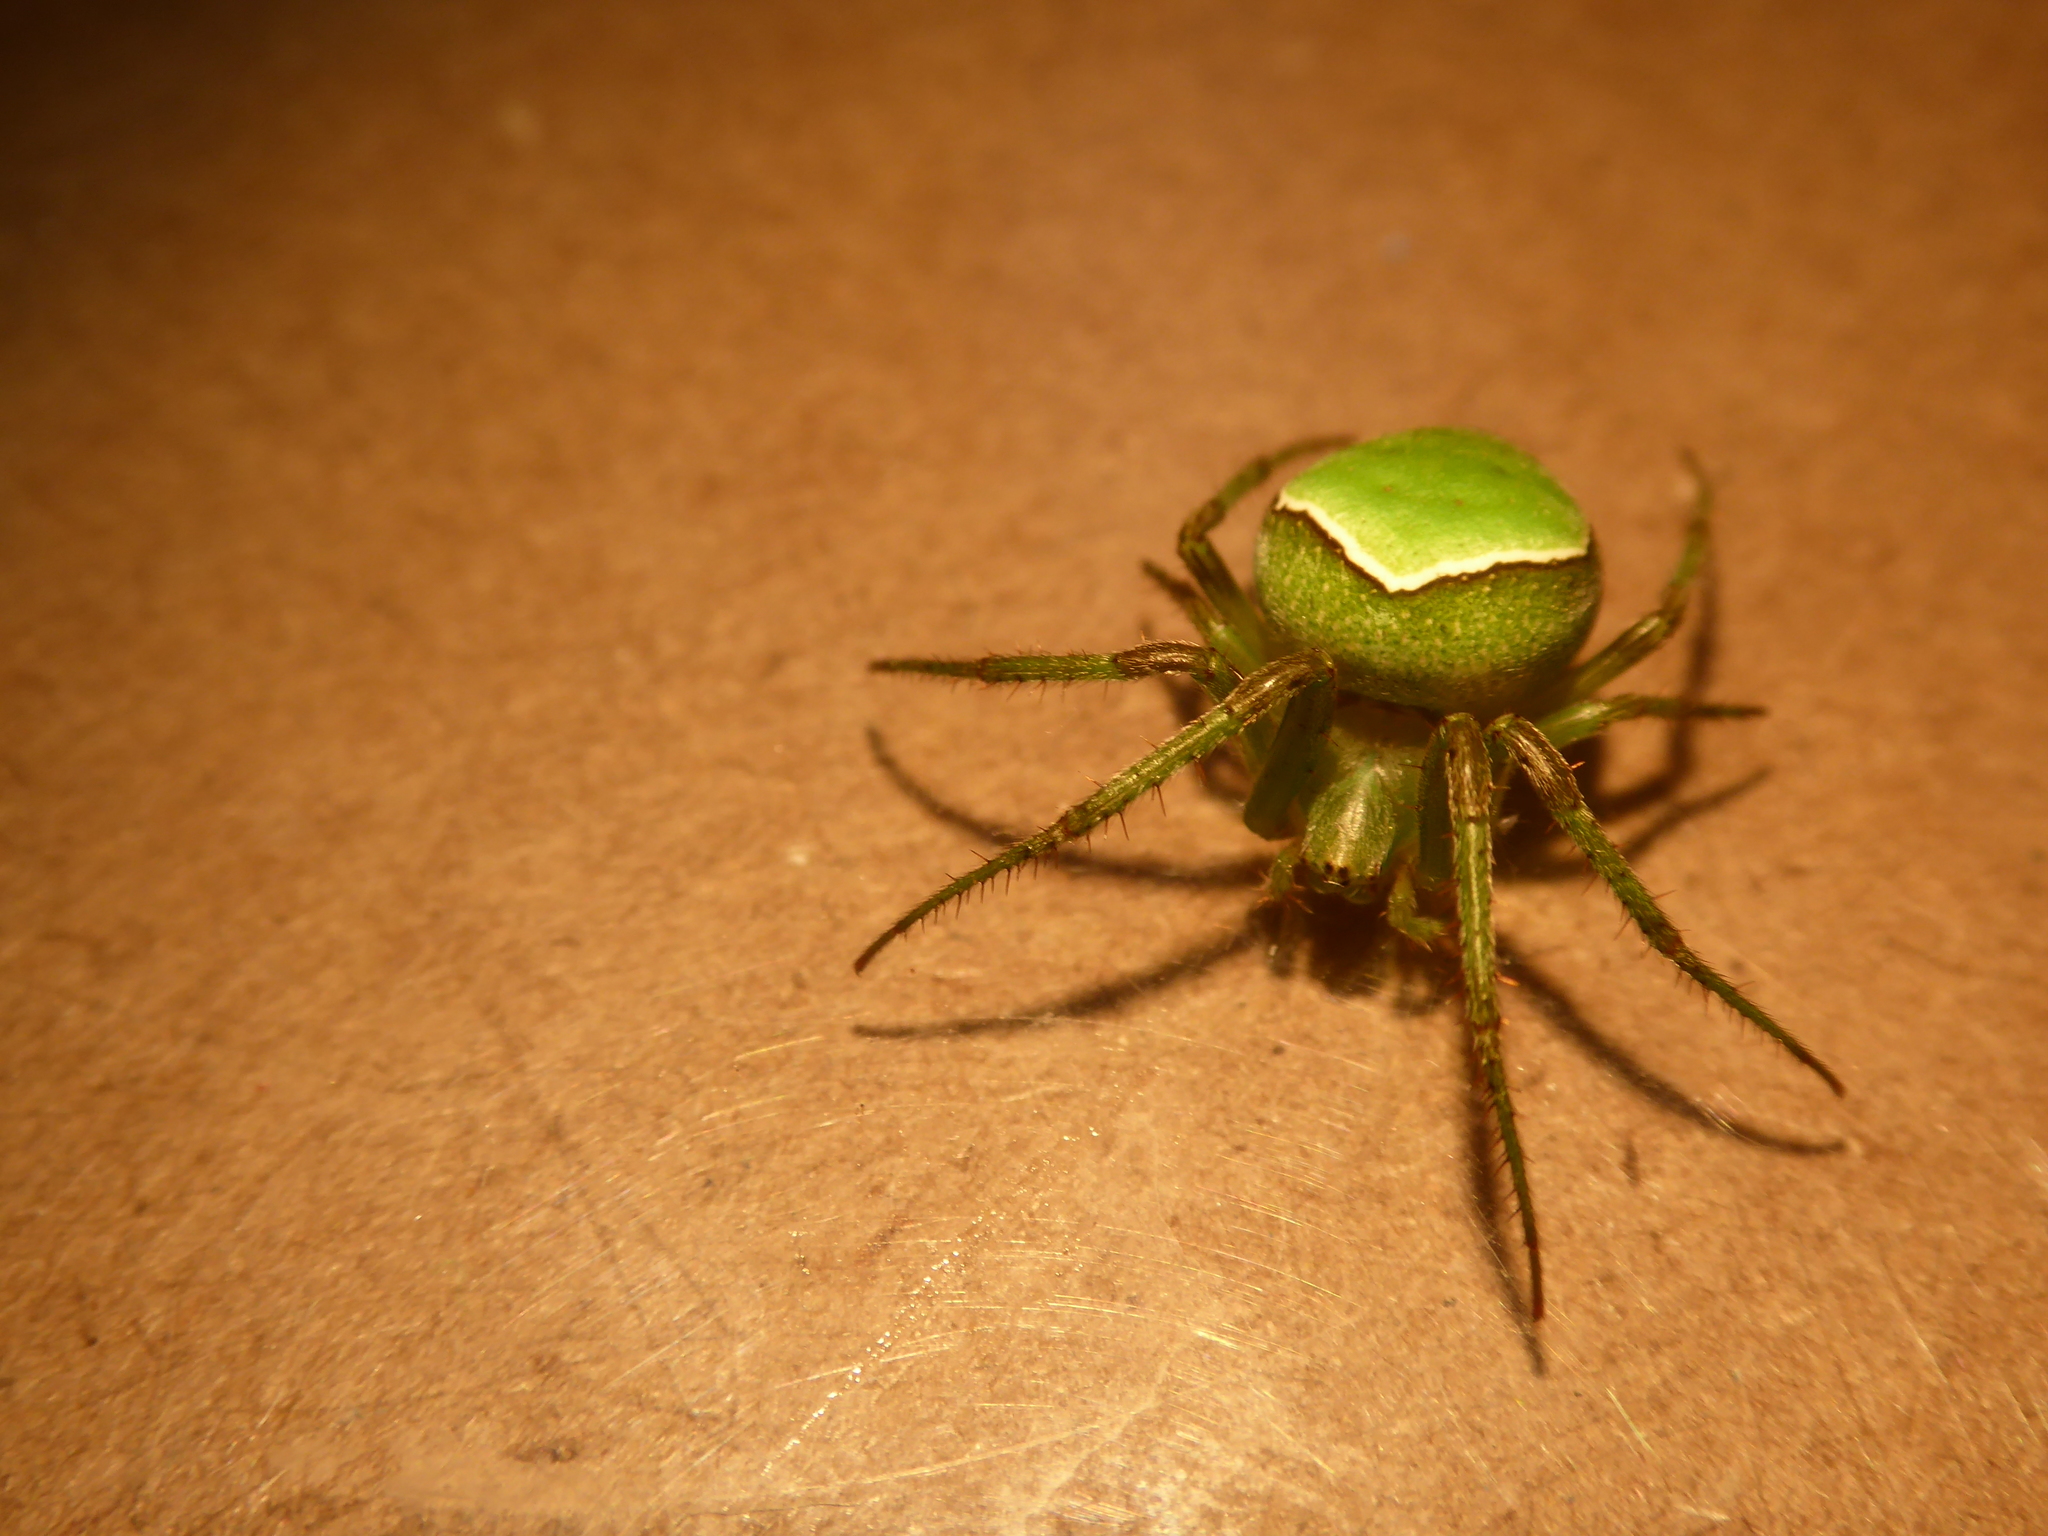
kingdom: Animalia
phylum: Arthropoda
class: Arachnida
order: Araneae
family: Araneidae
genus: Colaranea
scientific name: Colaranea viriditas
